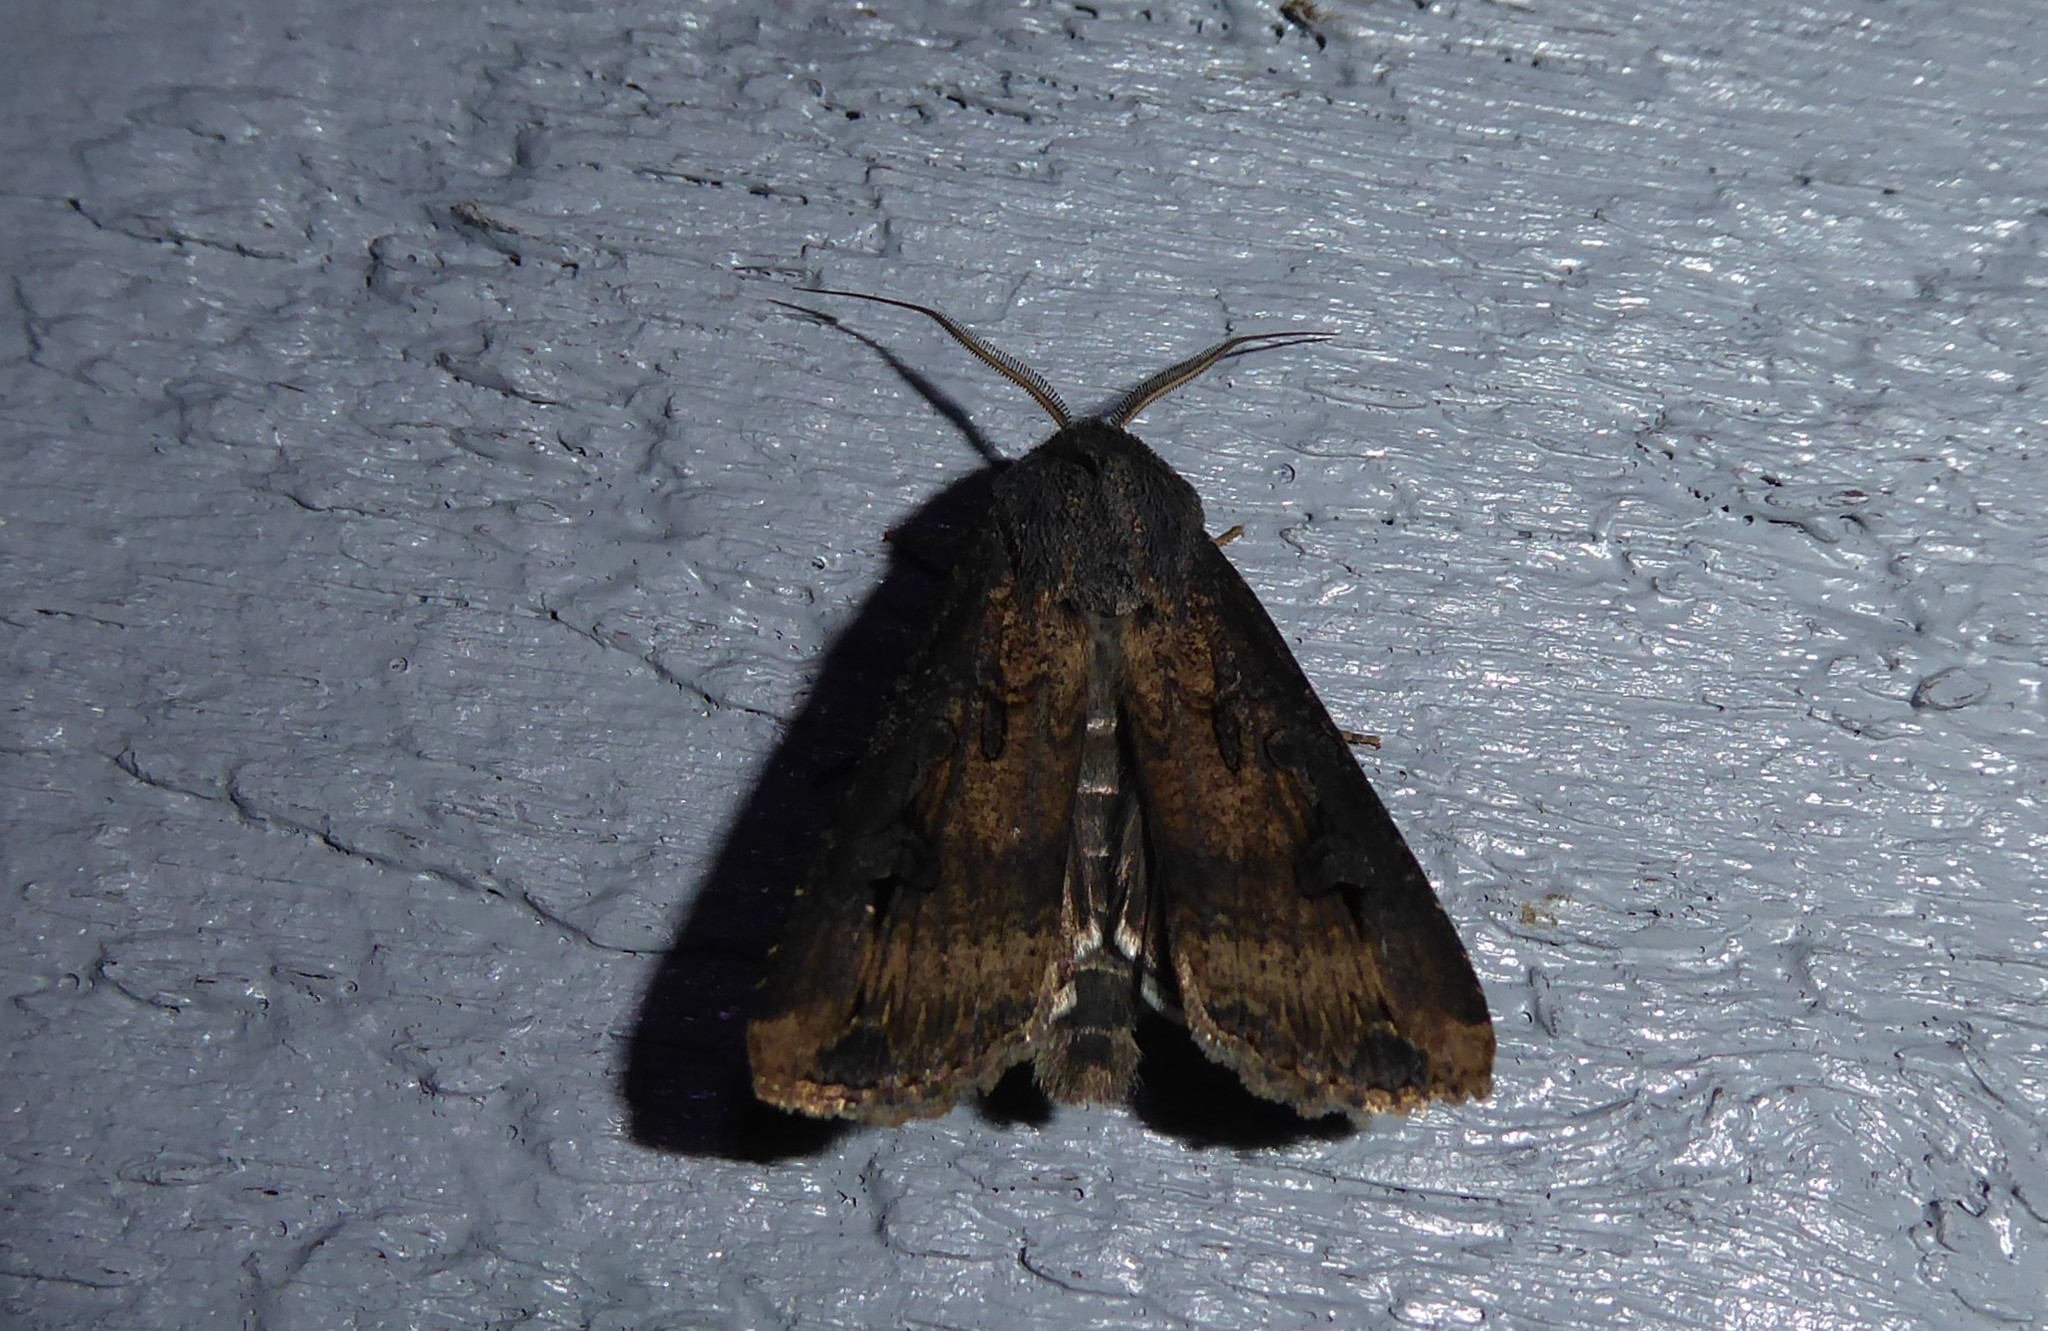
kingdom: Animalia
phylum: Arthropoda
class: Insecta
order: Lepidoptera
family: Noctuidae
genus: Agrotis
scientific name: Agrotis ipsilon
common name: Dark sword-grass
